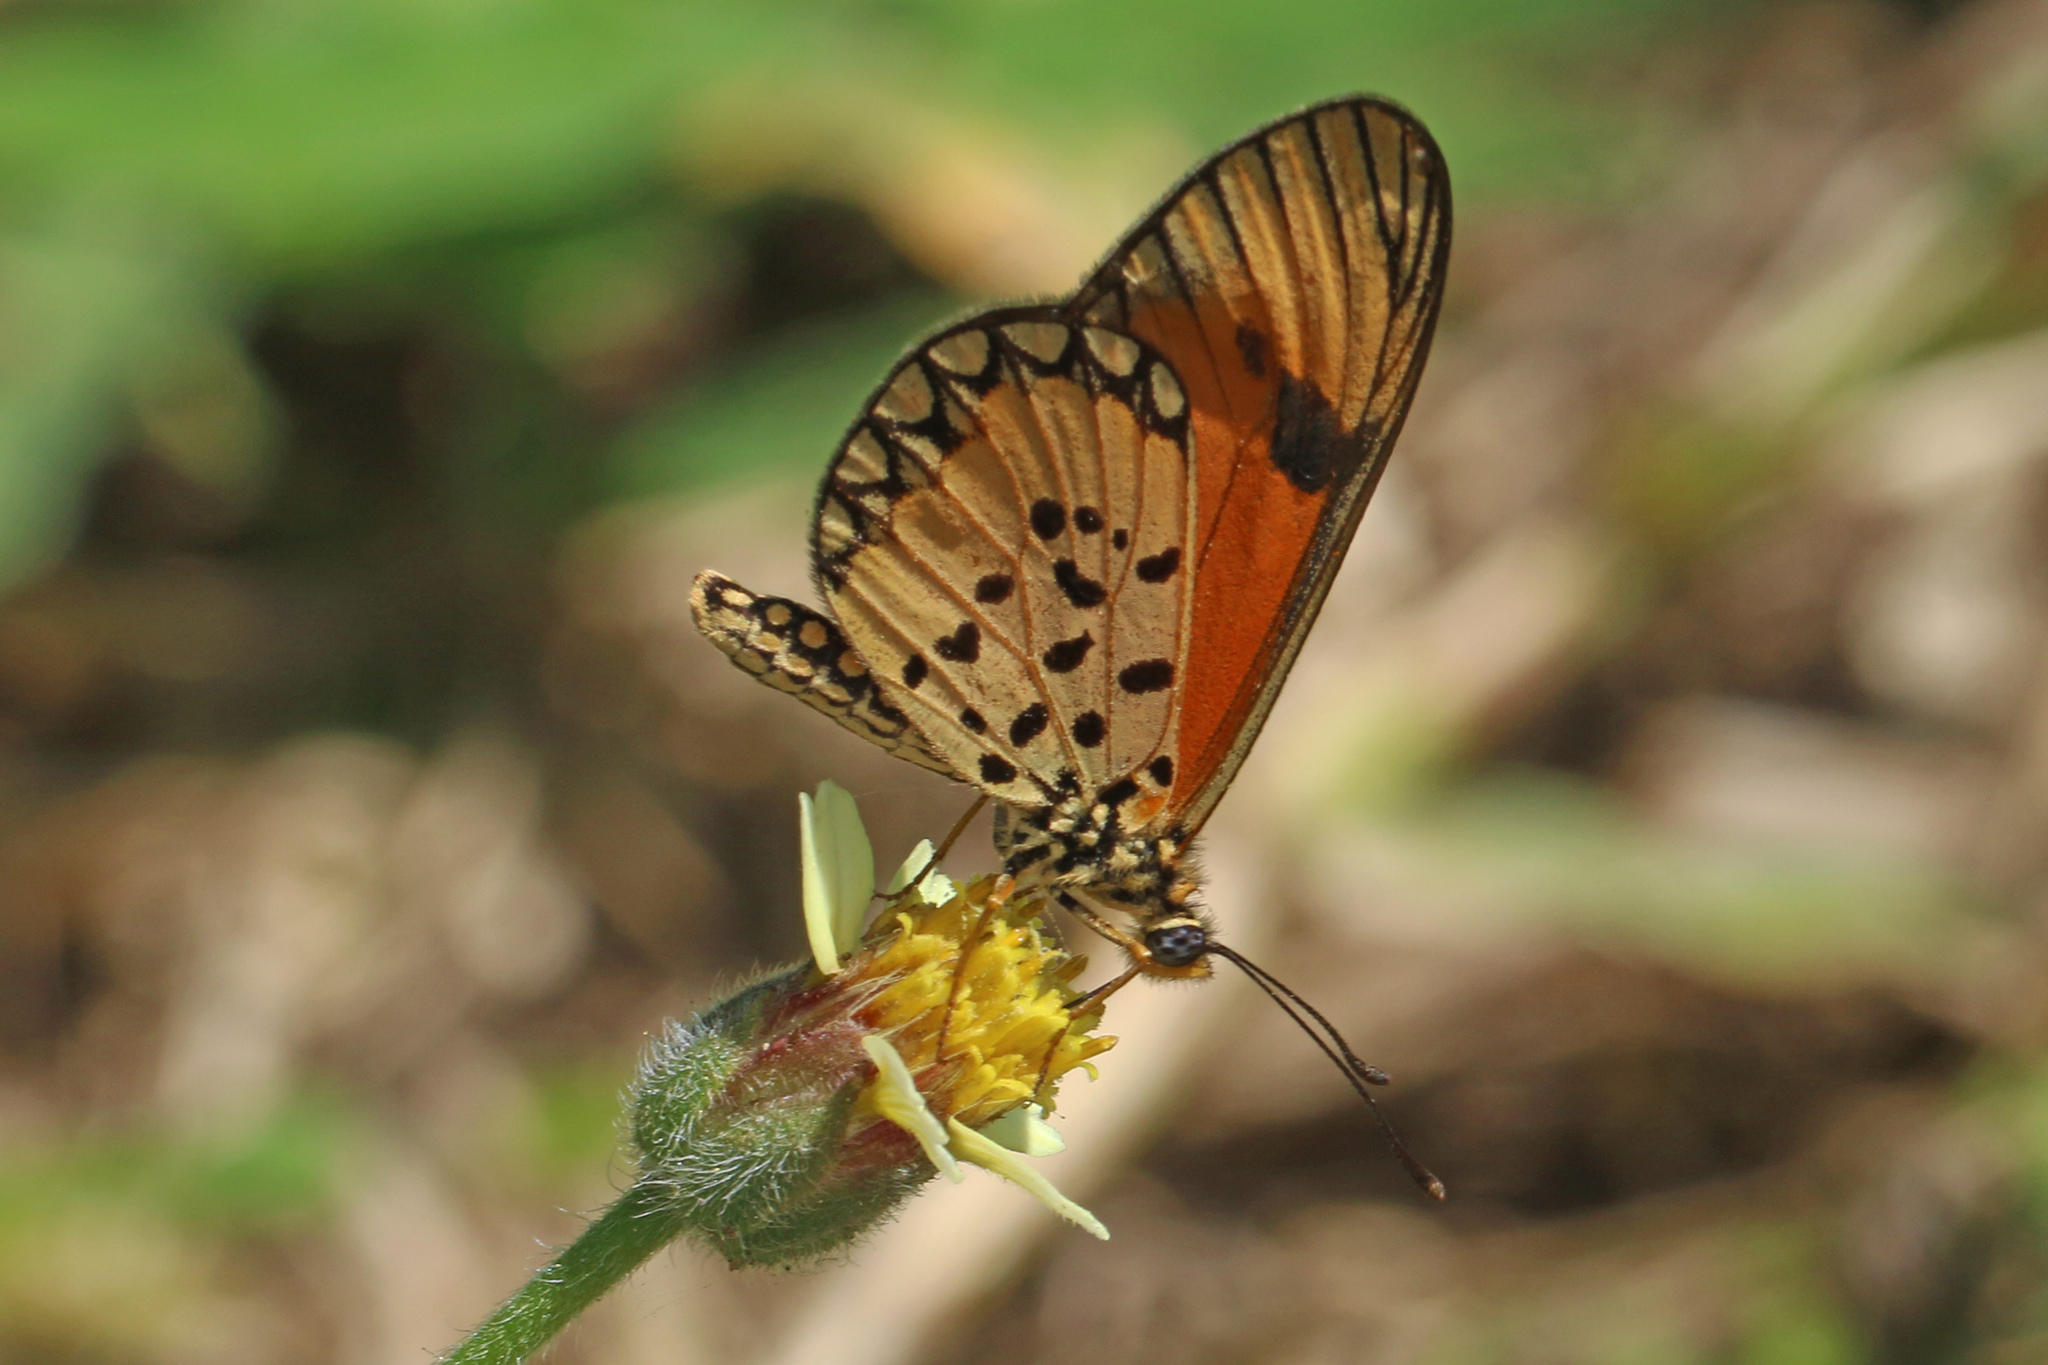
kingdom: Animalia
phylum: Arthropoda
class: Insecta
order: Lepidoptera
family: Nymphalidae
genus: Acraea
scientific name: Acraea Telchinia serena
